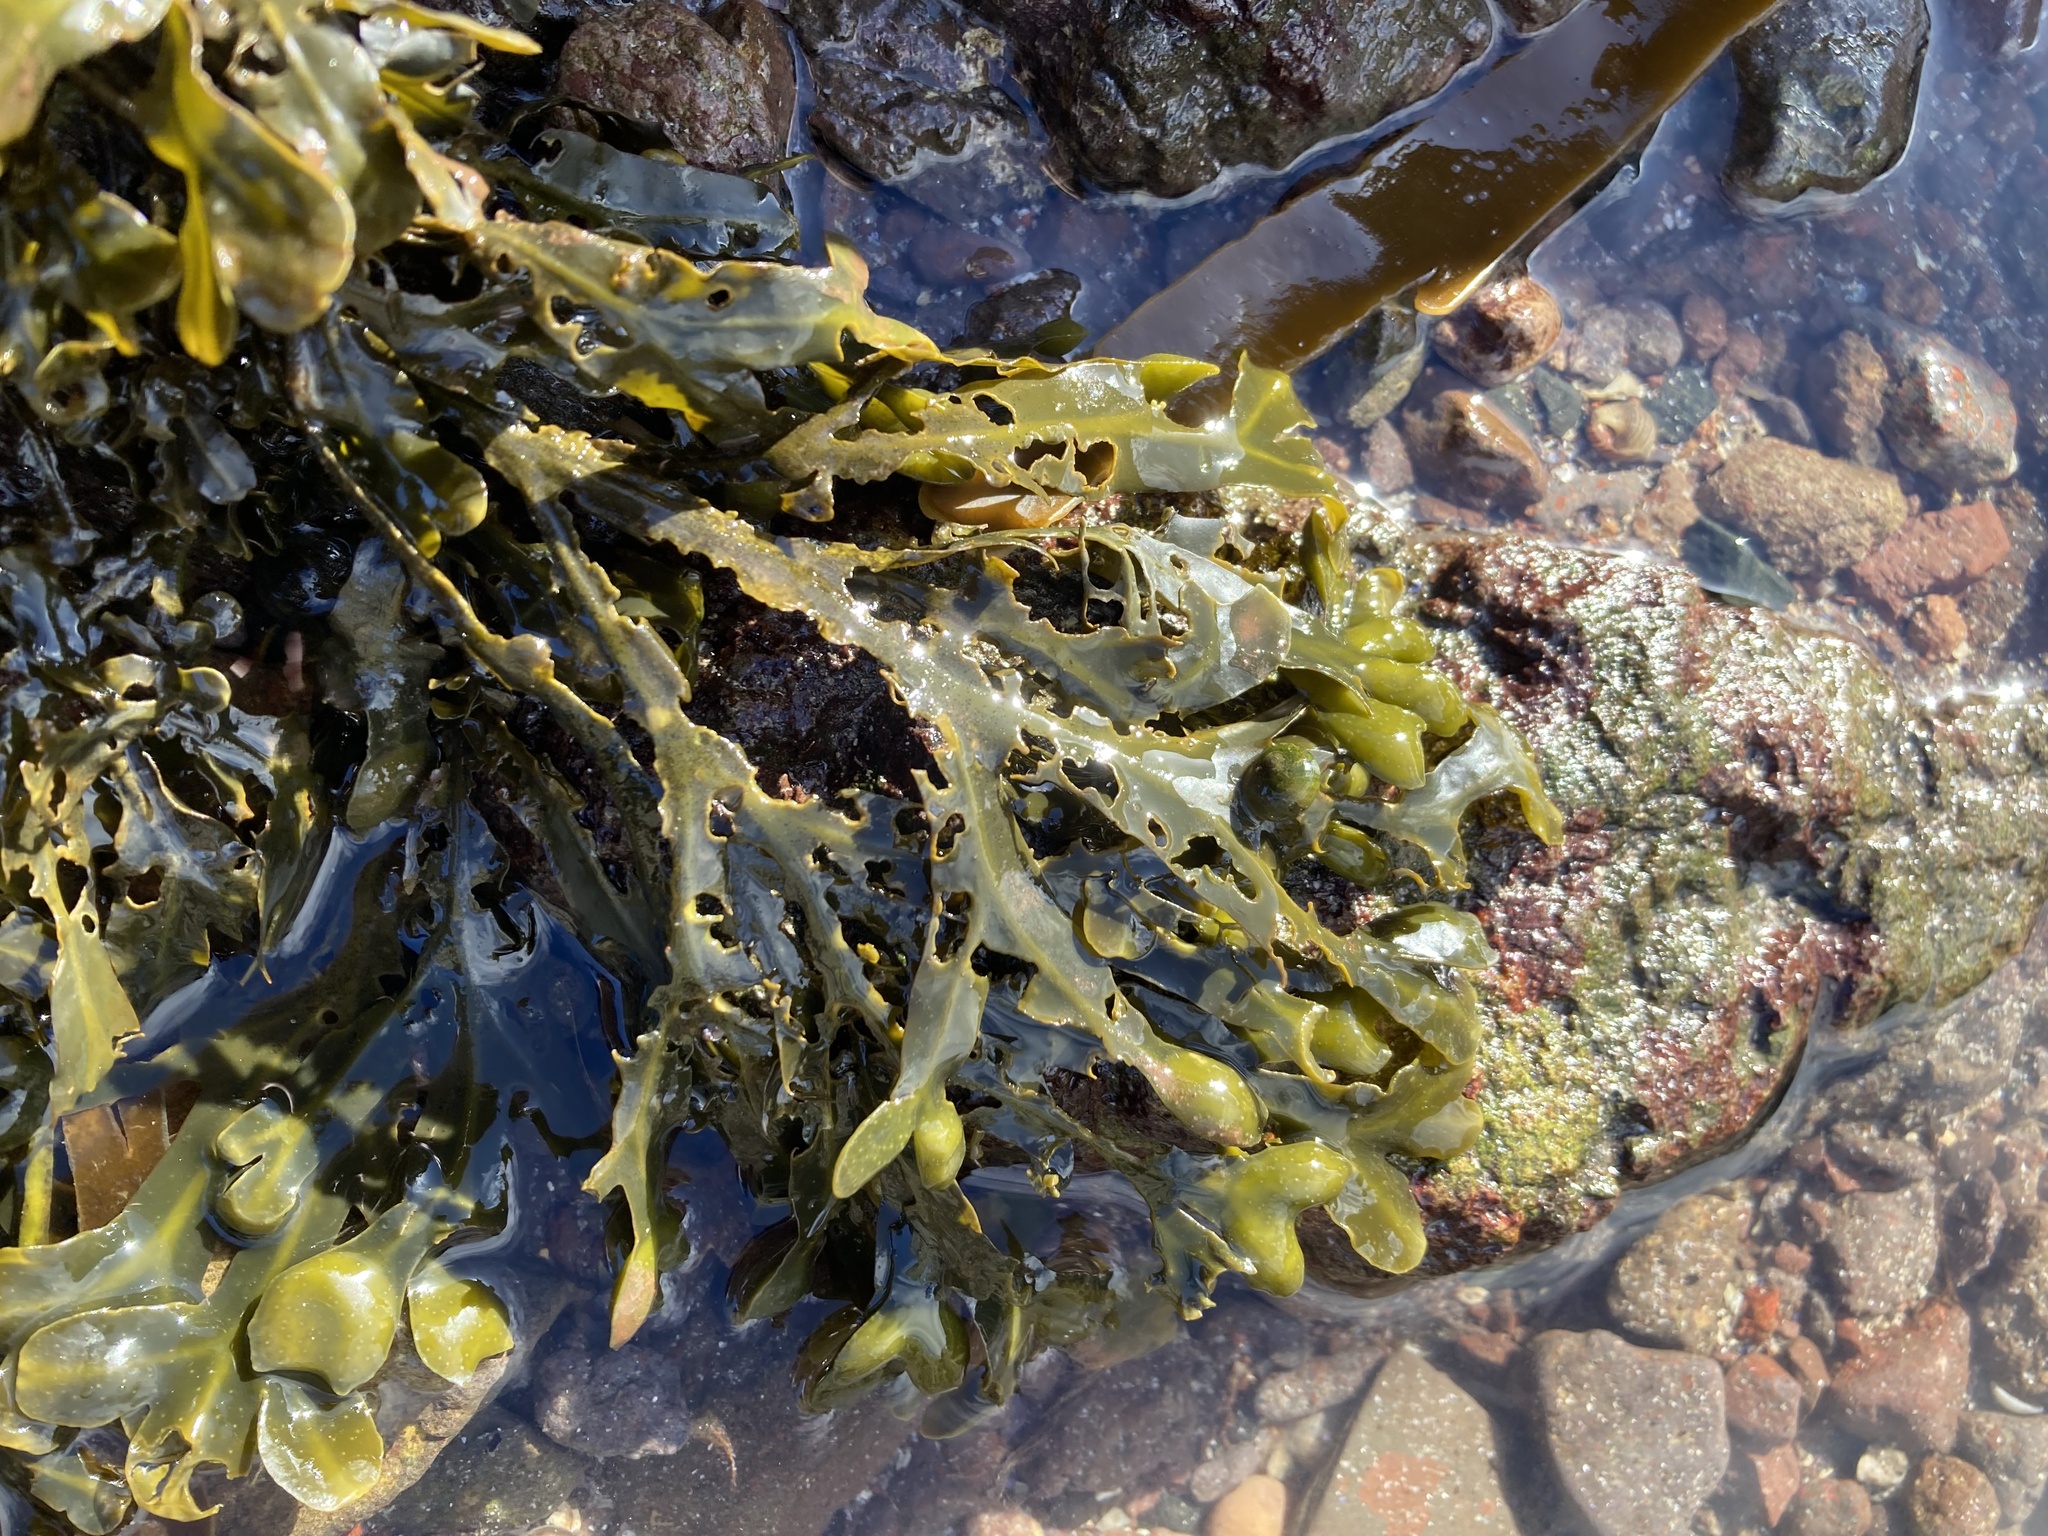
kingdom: Chromista
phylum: Ochrophyta
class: Phaeophyceae
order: Fucales
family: Fucaceae
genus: Fucus
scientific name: Fucus vesiculosus
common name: Bladder wrack
